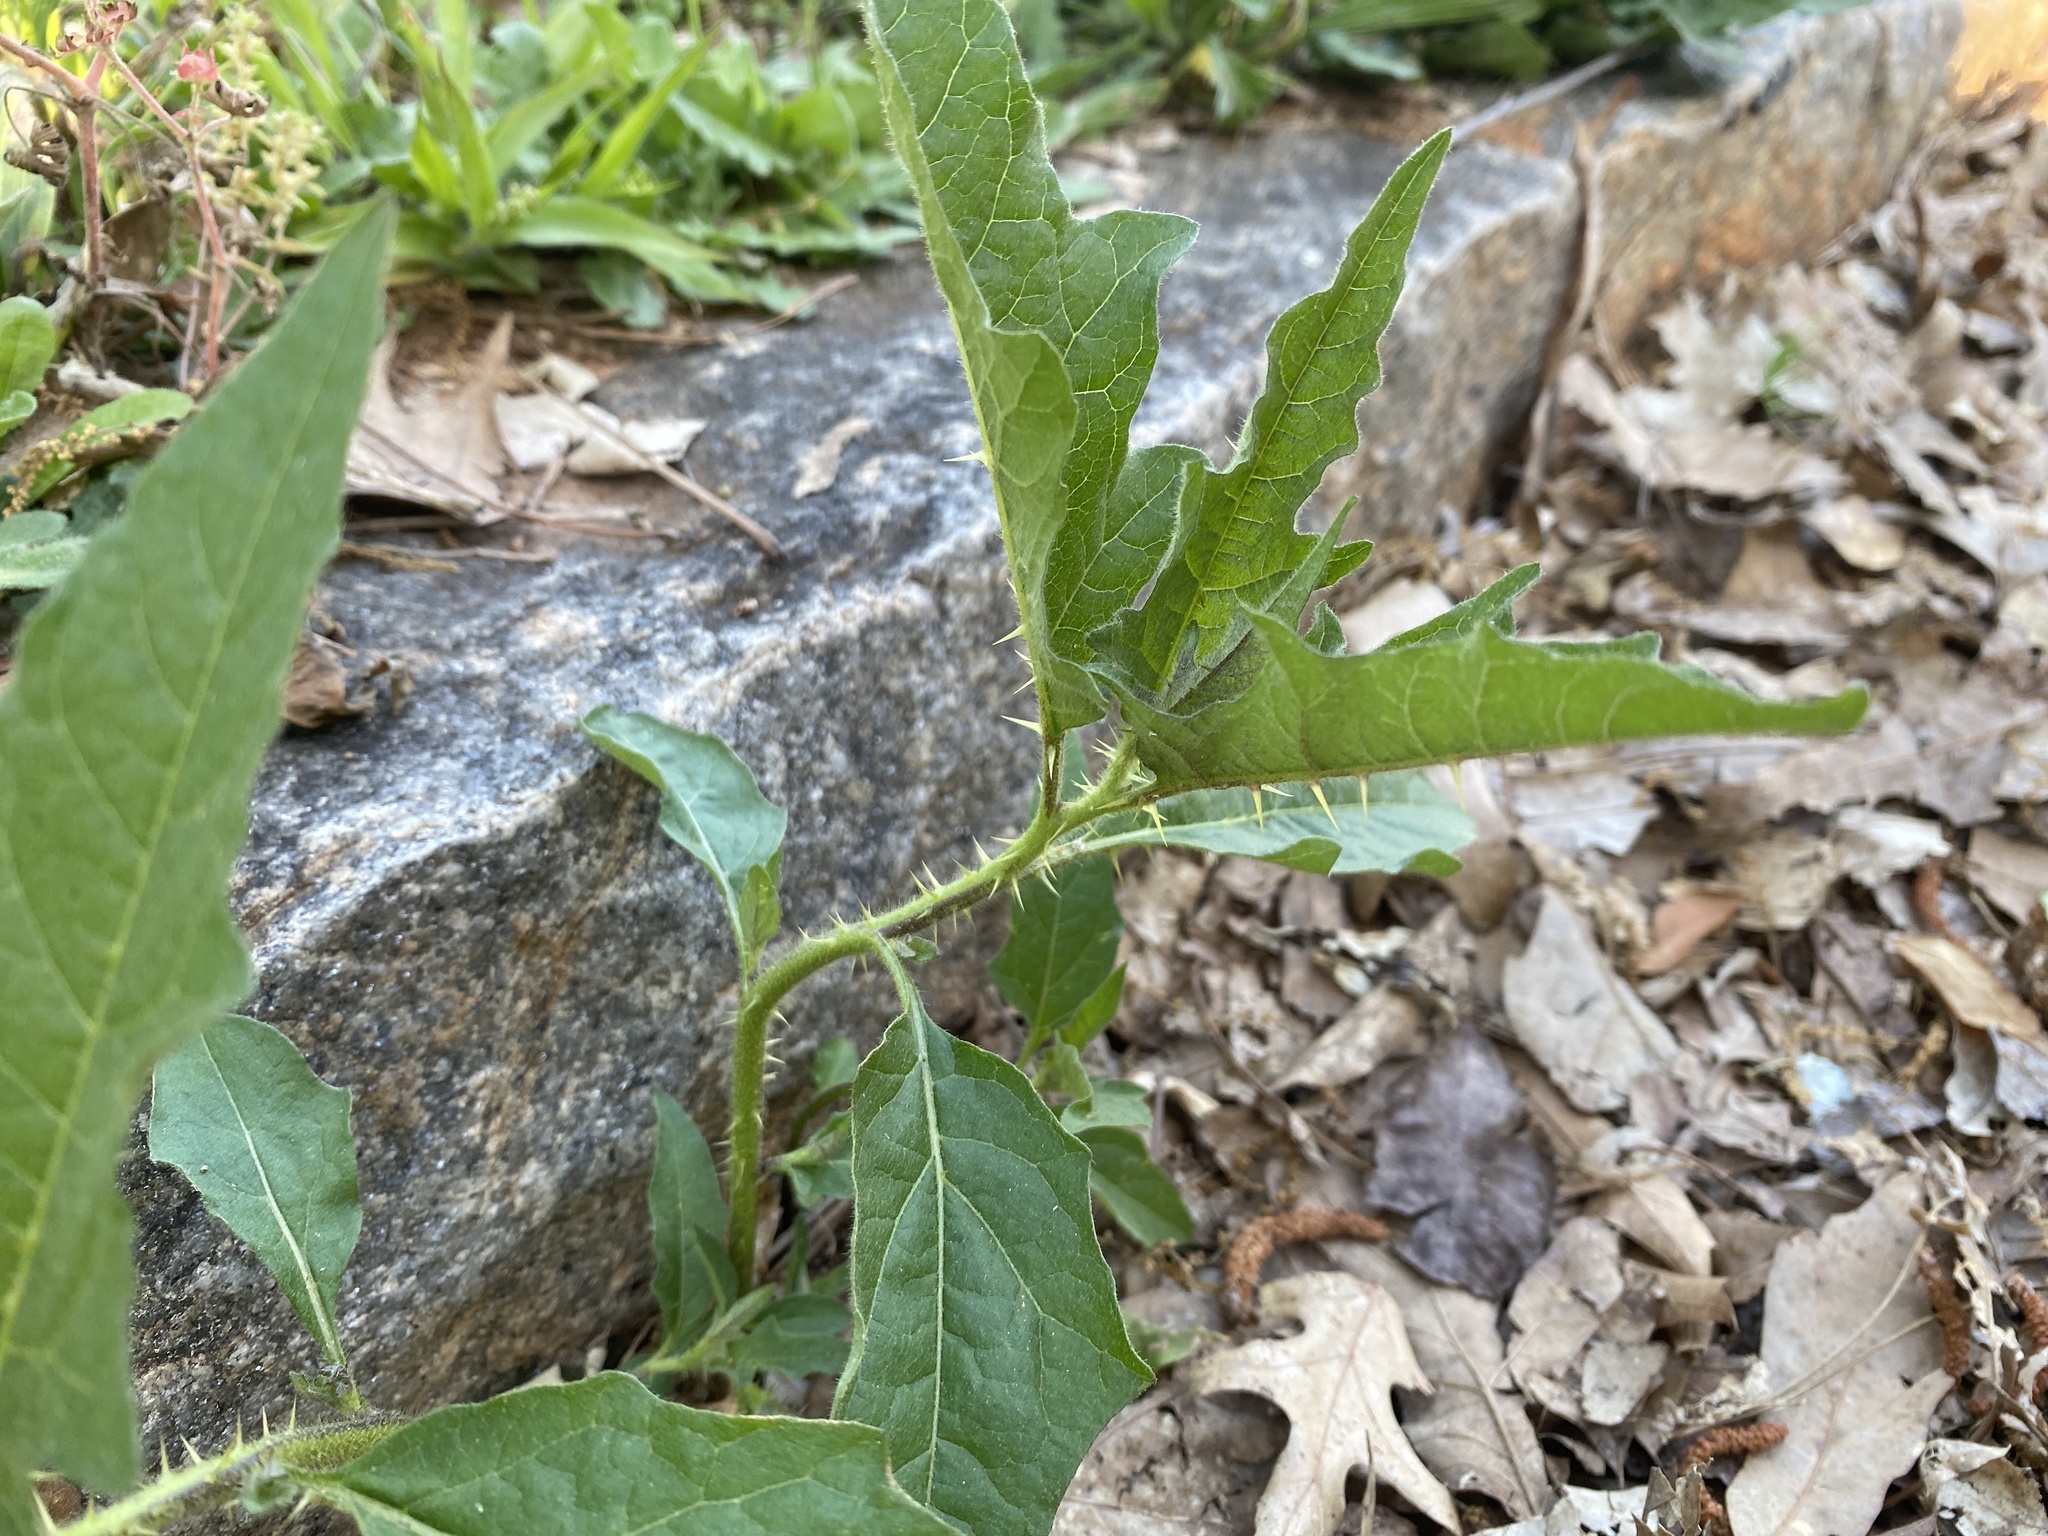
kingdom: Plantae
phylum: Tracheophyta
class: Magnoliopsida
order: Solanales
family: Solanaceae
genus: Solanum
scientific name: Solanum carolinense
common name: Horse-nettle
